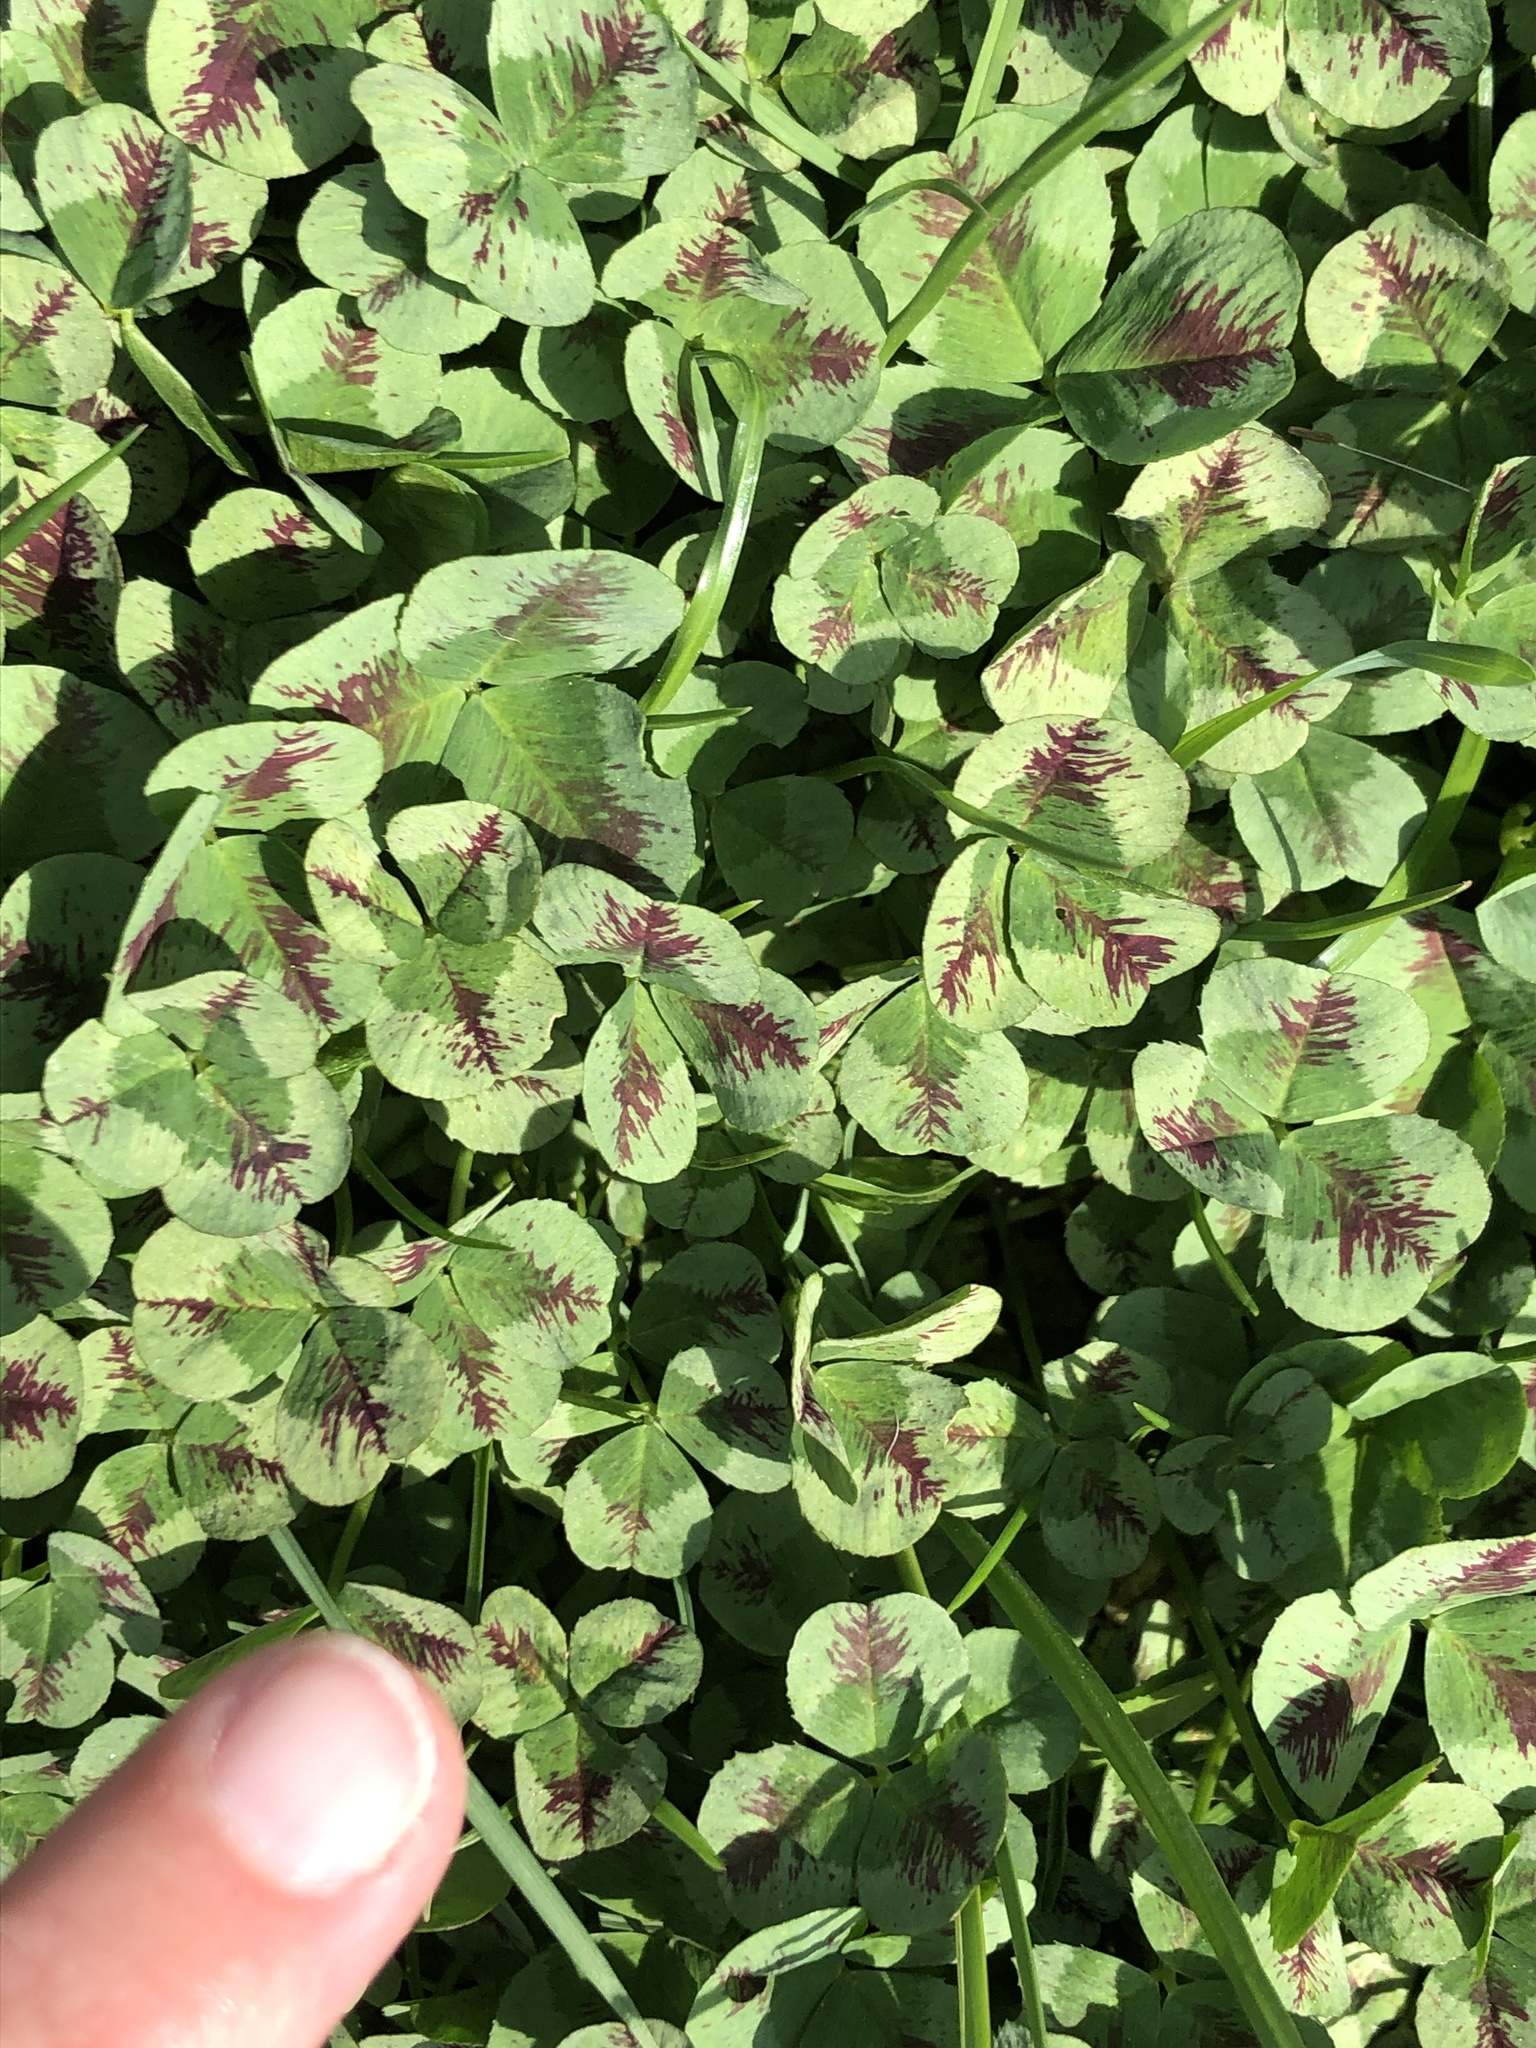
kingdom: Plantae
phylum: Tracheophyta
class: Magnoliopsida
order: Fabales
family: Fabaceae
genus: Trifolium
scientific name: Trifolium repens
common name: White clover
